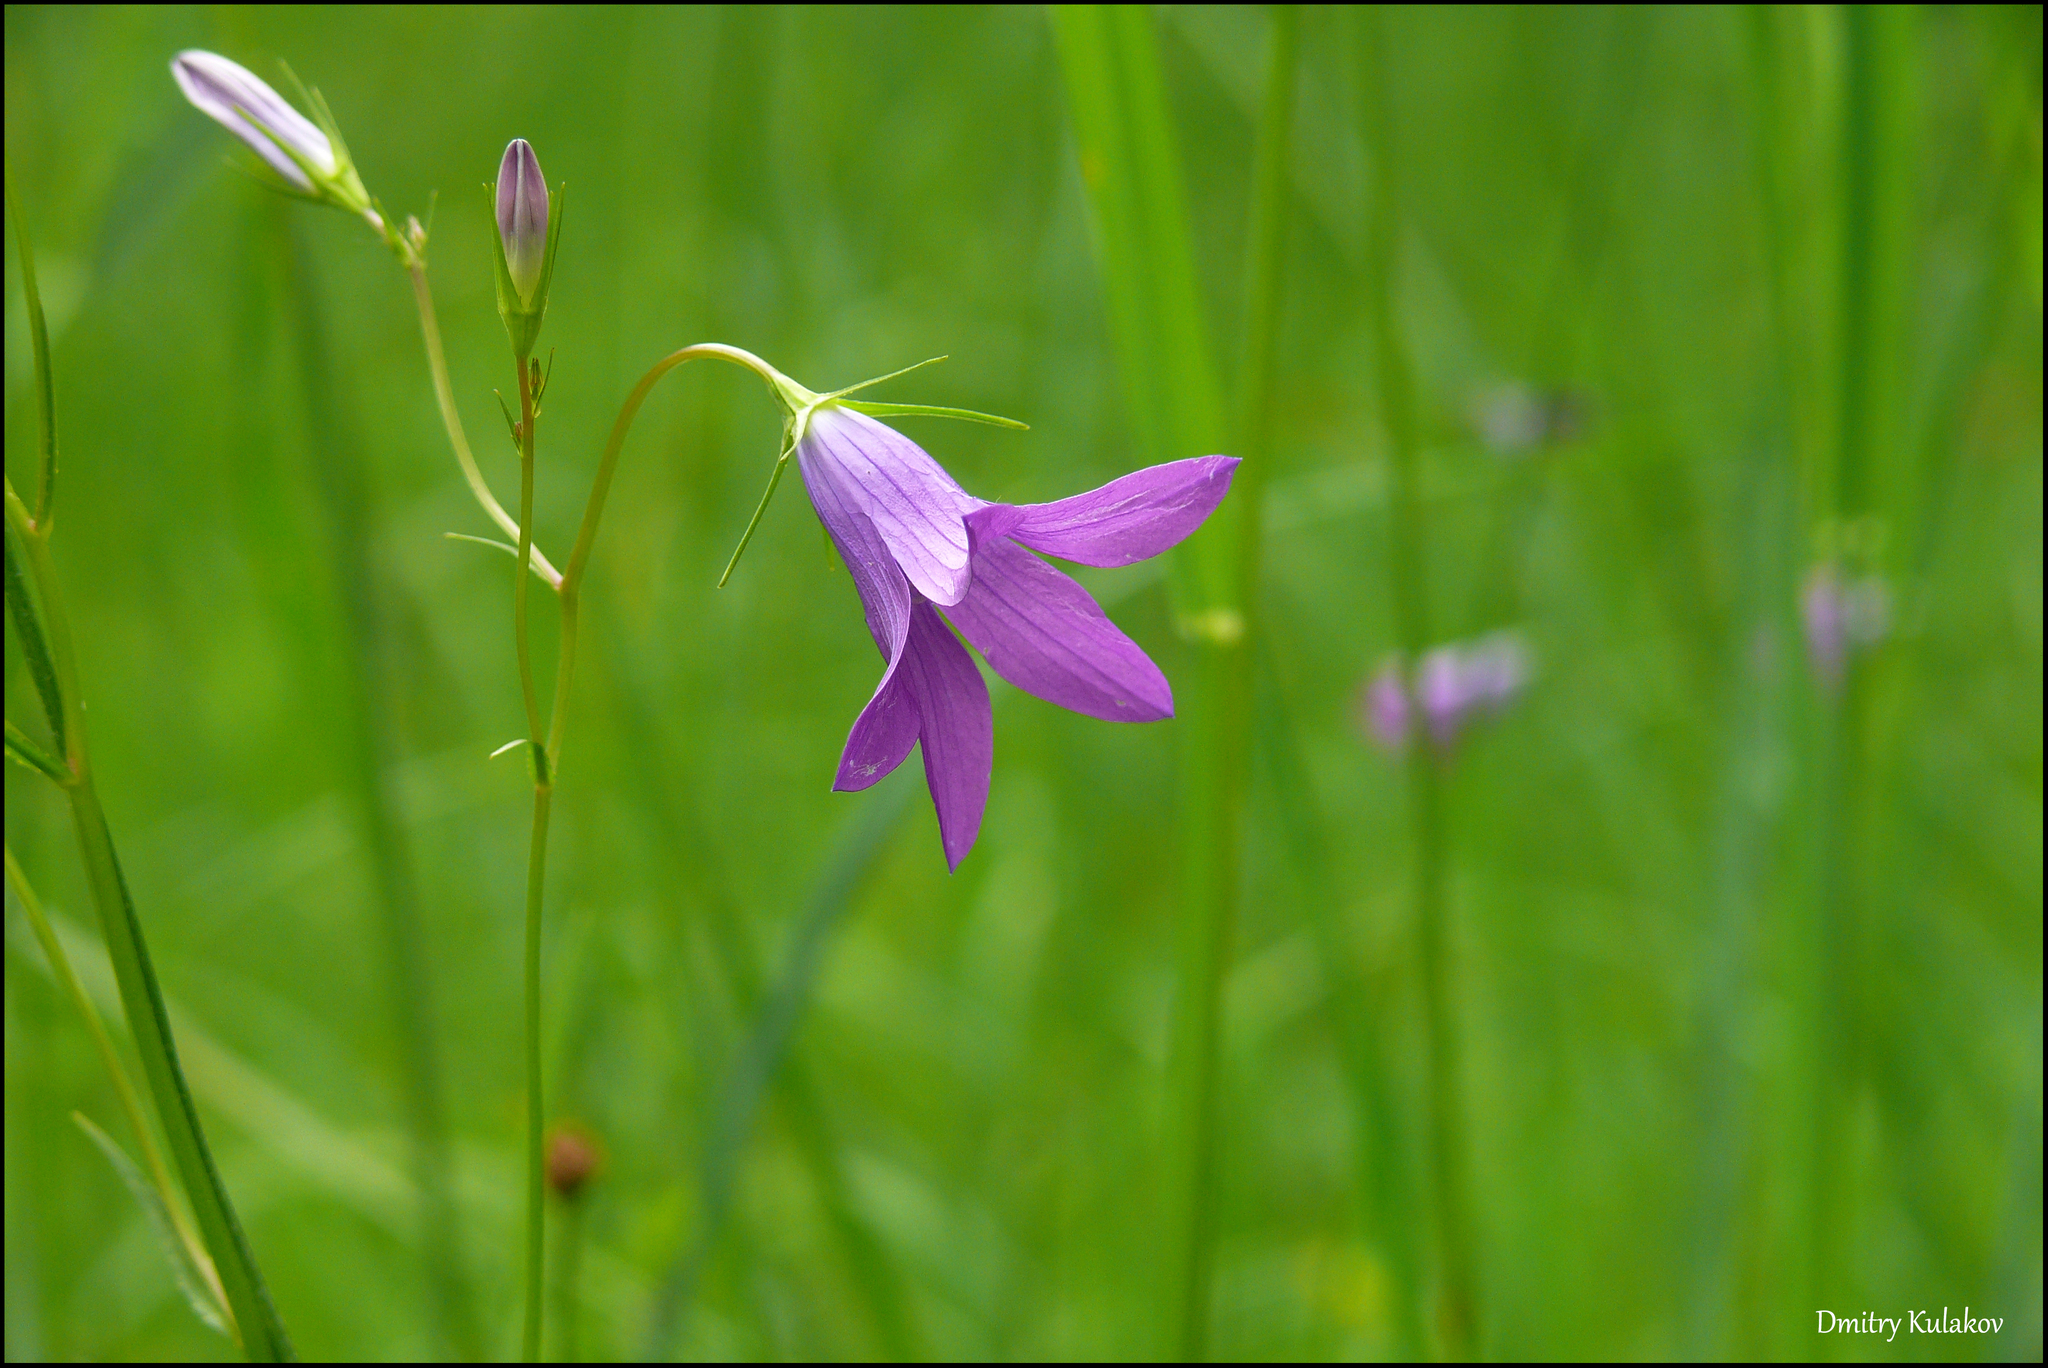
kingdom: Plantae
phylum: Tracheophyta
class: Magnoliopsida
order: Asterales
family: Campanulaceae
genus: Campanula
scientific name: Campanula patula
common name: Spreading bellflower
